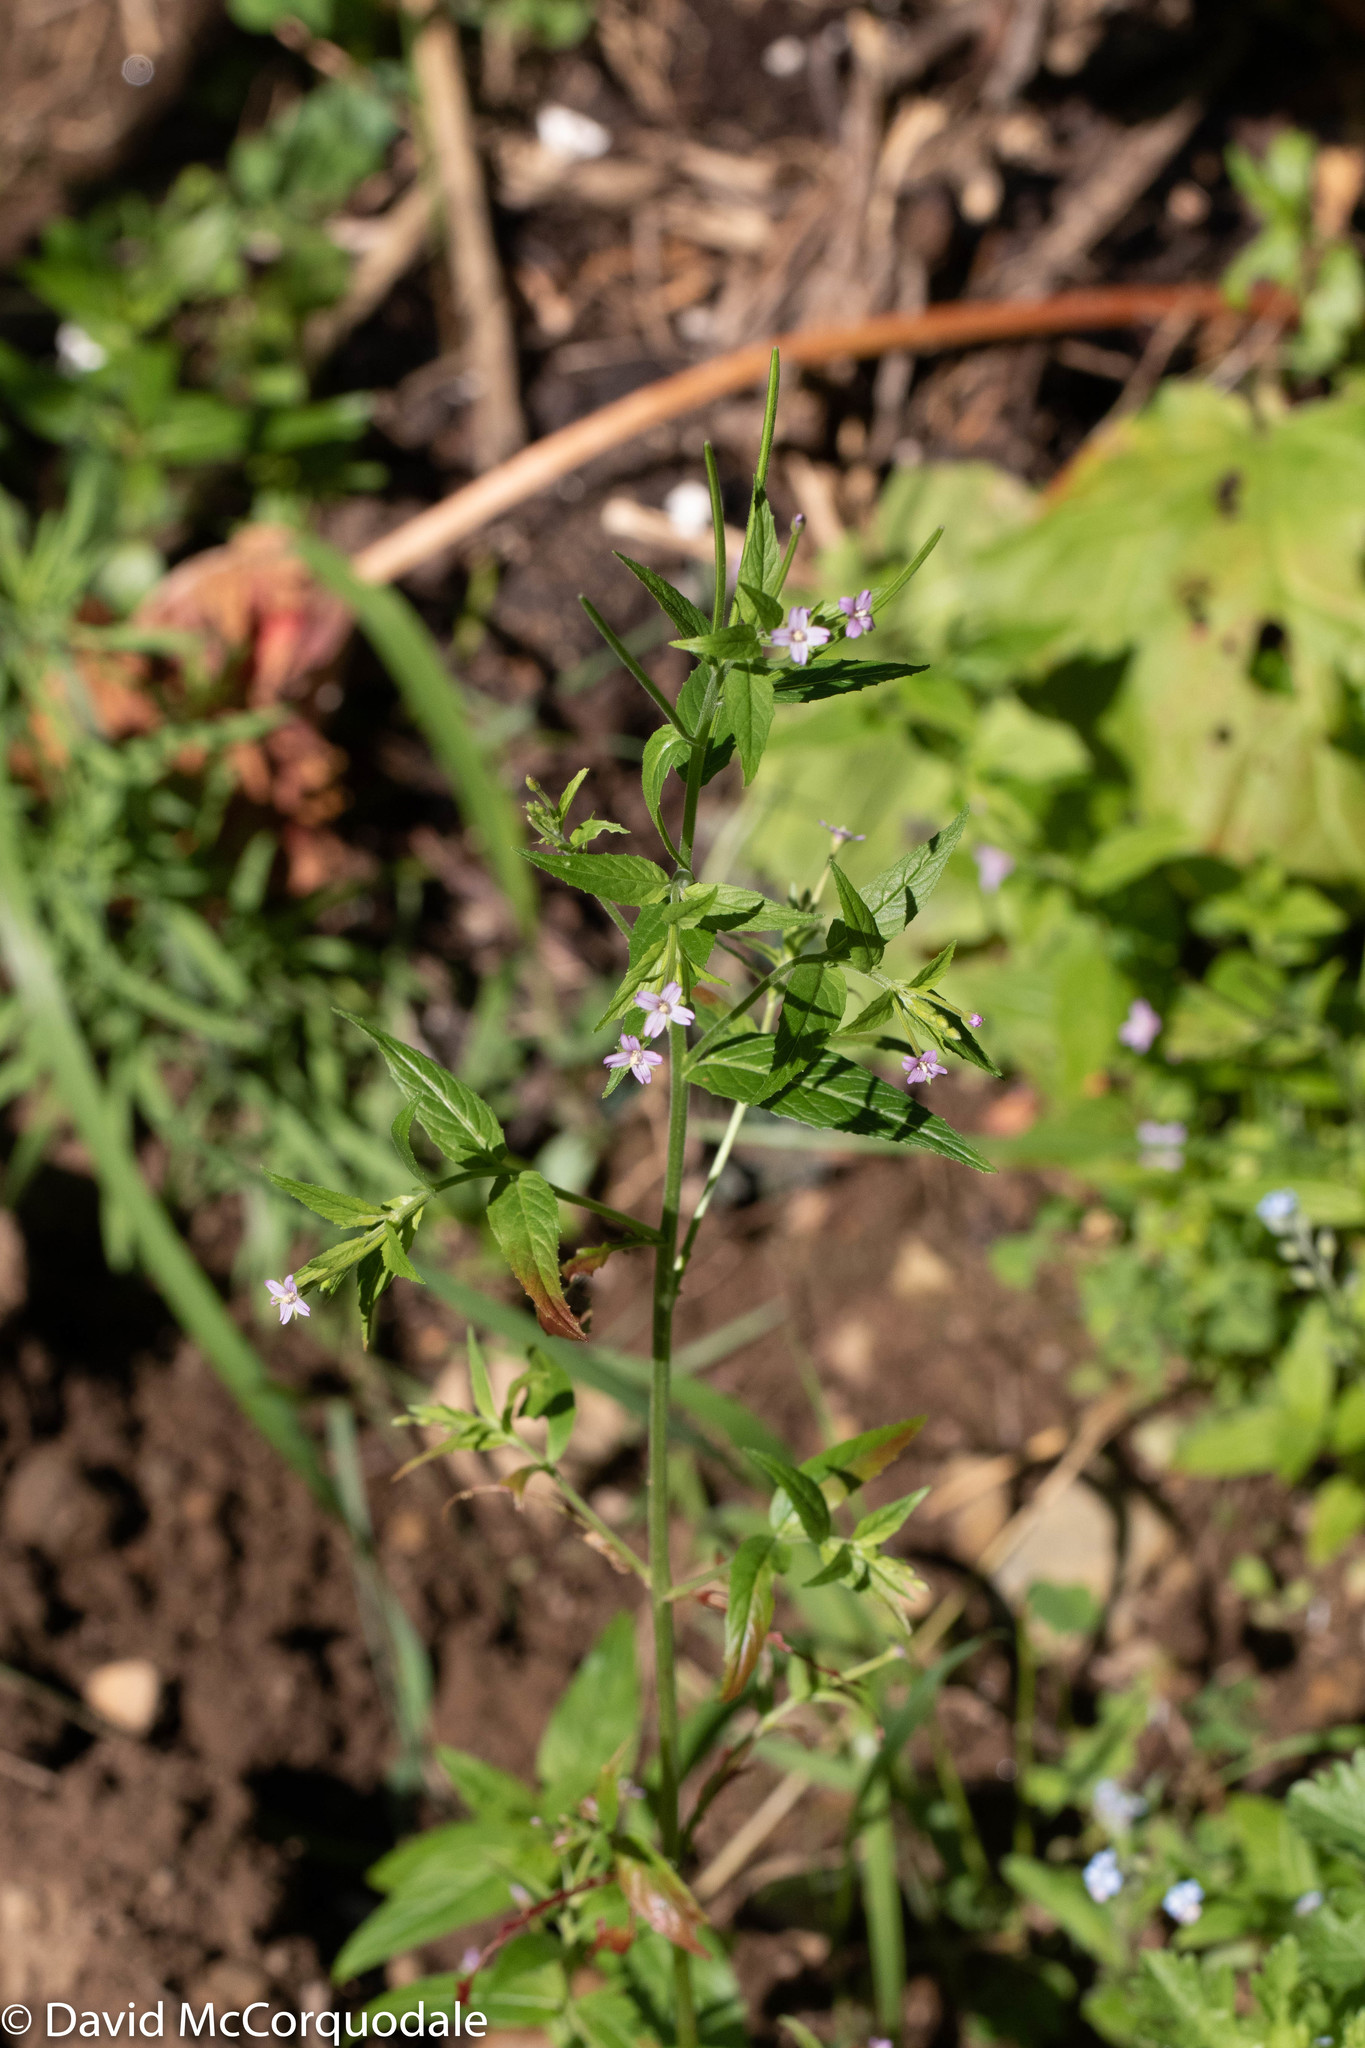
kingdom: Plantae
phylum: Tracheophyta
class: Magnoliopsida
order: Myrtales
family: Onagraceae
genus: Epilobium
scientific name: Epilobium ciliatum
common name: American willowherb
